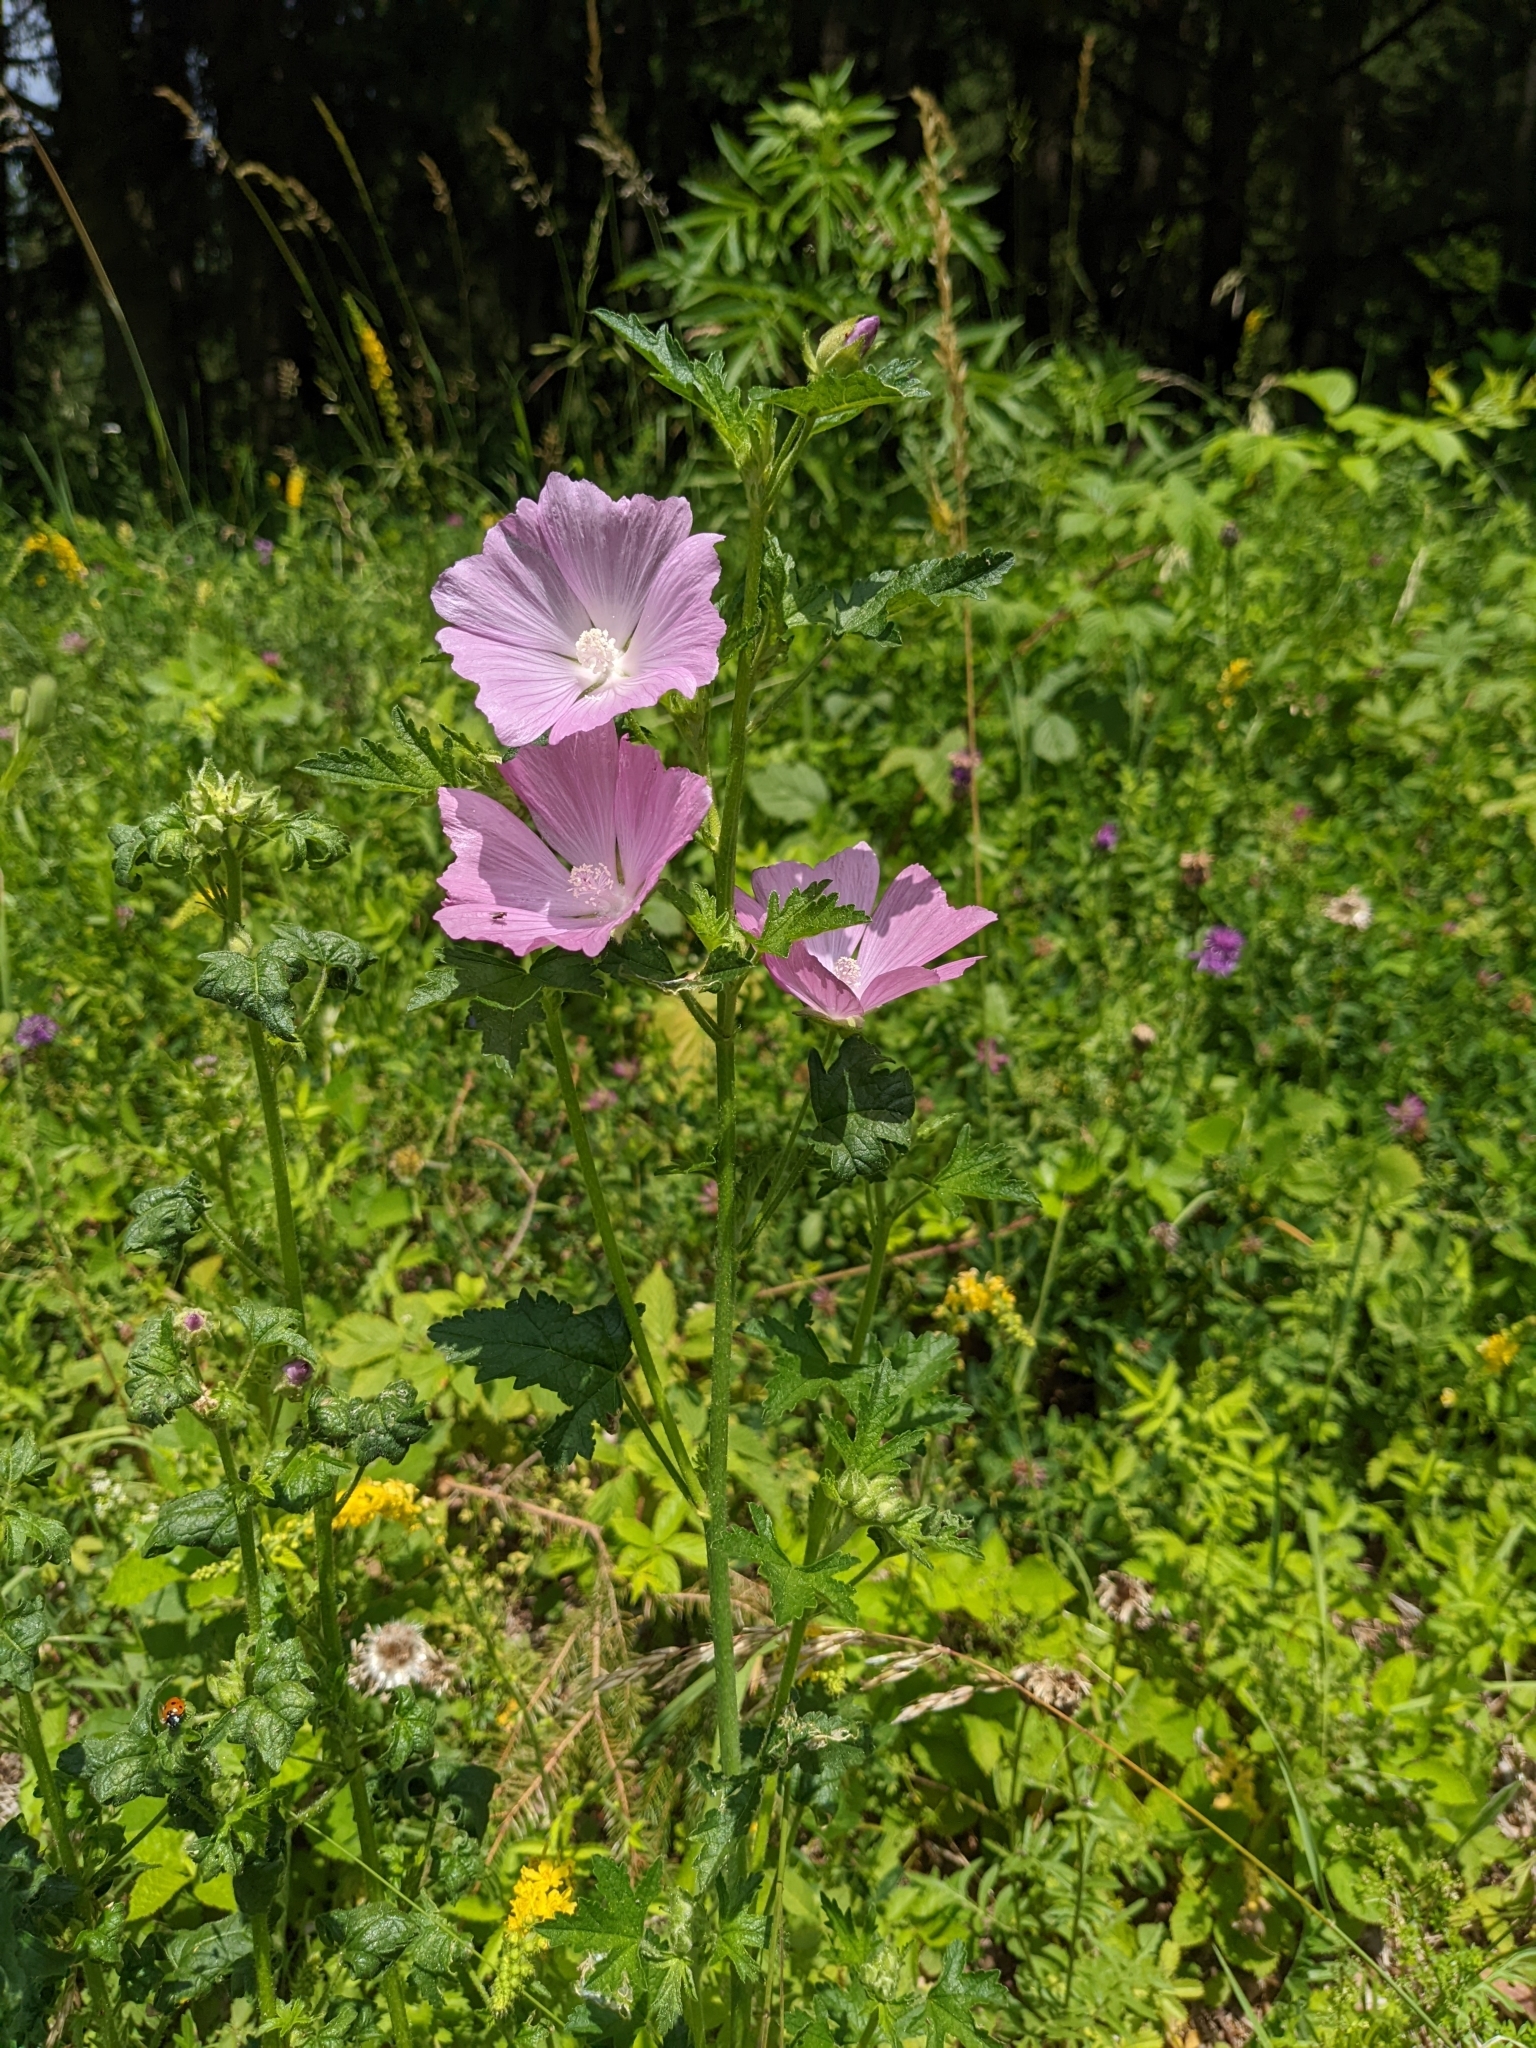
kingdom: Plantae
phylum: Tracheophyta
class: Magnoliopsida
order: Malvales
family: Malvaceae
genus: Malva
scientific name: Malva alcea
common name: Greater musk-mallow
